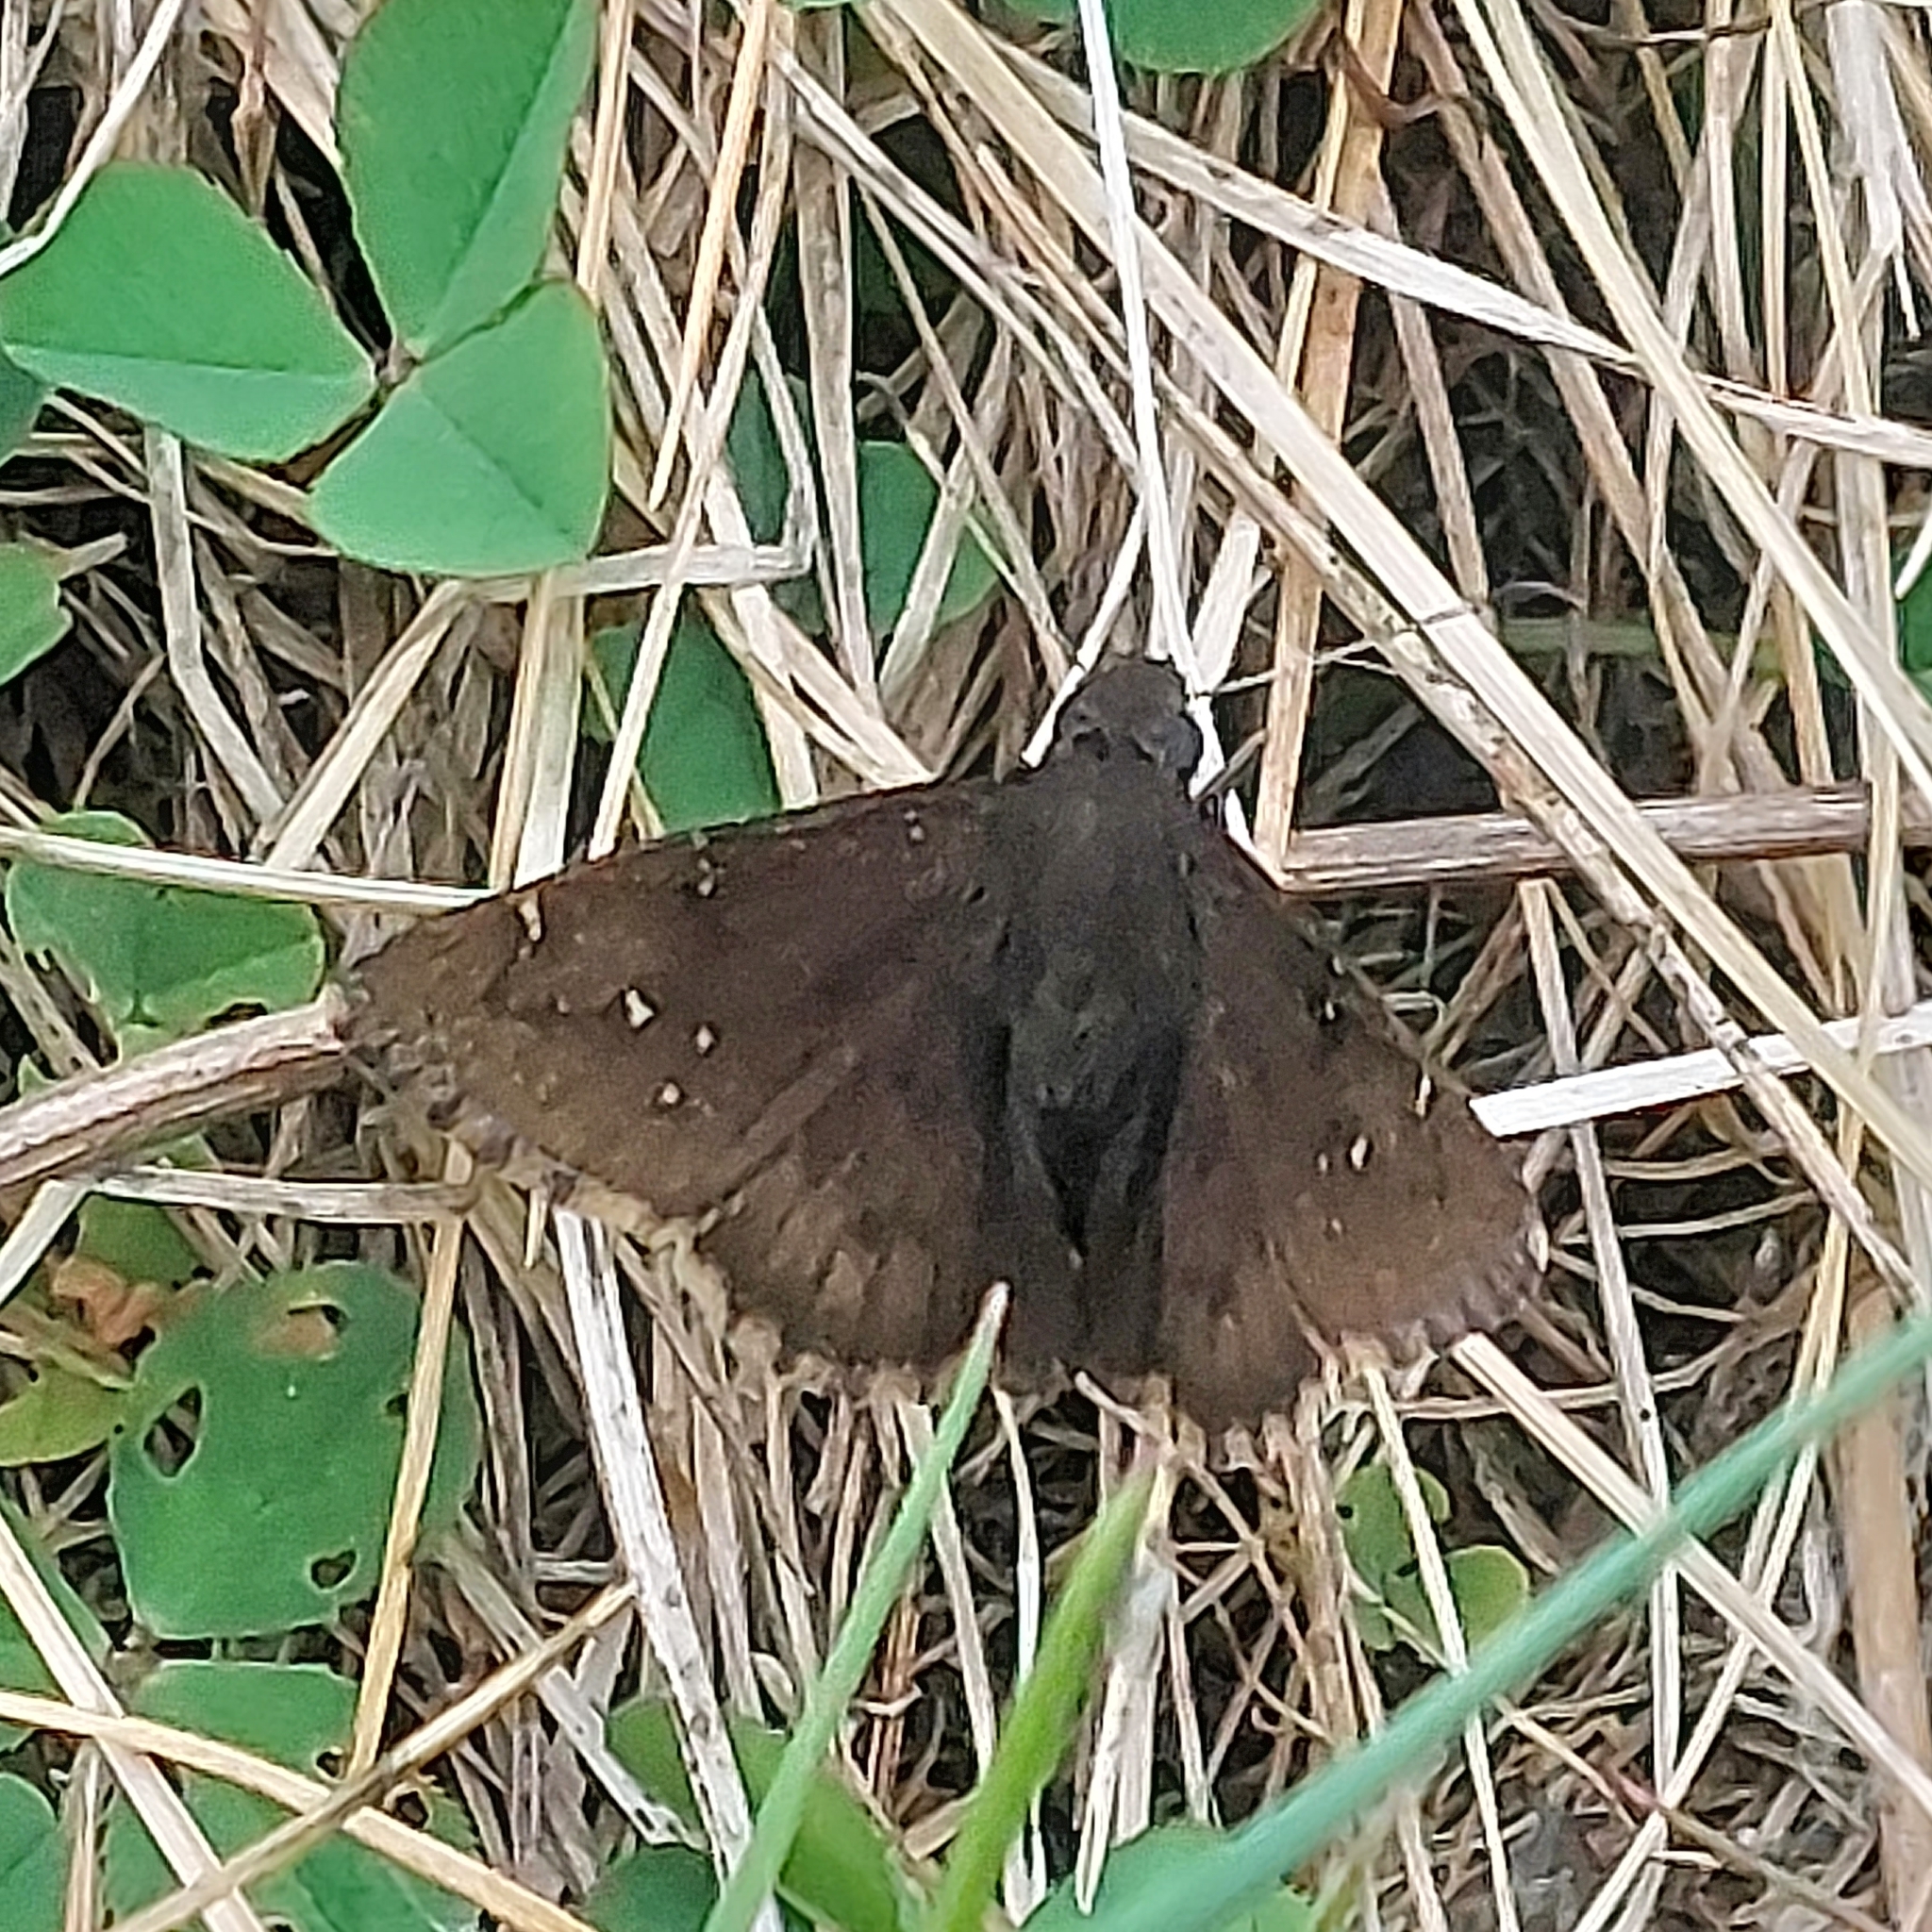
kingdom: Animalia
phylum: Arthropoda
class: Insecta
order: Lepidoptera
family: Hesperiidae
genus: Thorybes
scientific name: Thorybes pylades
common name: Northern cloudywing
